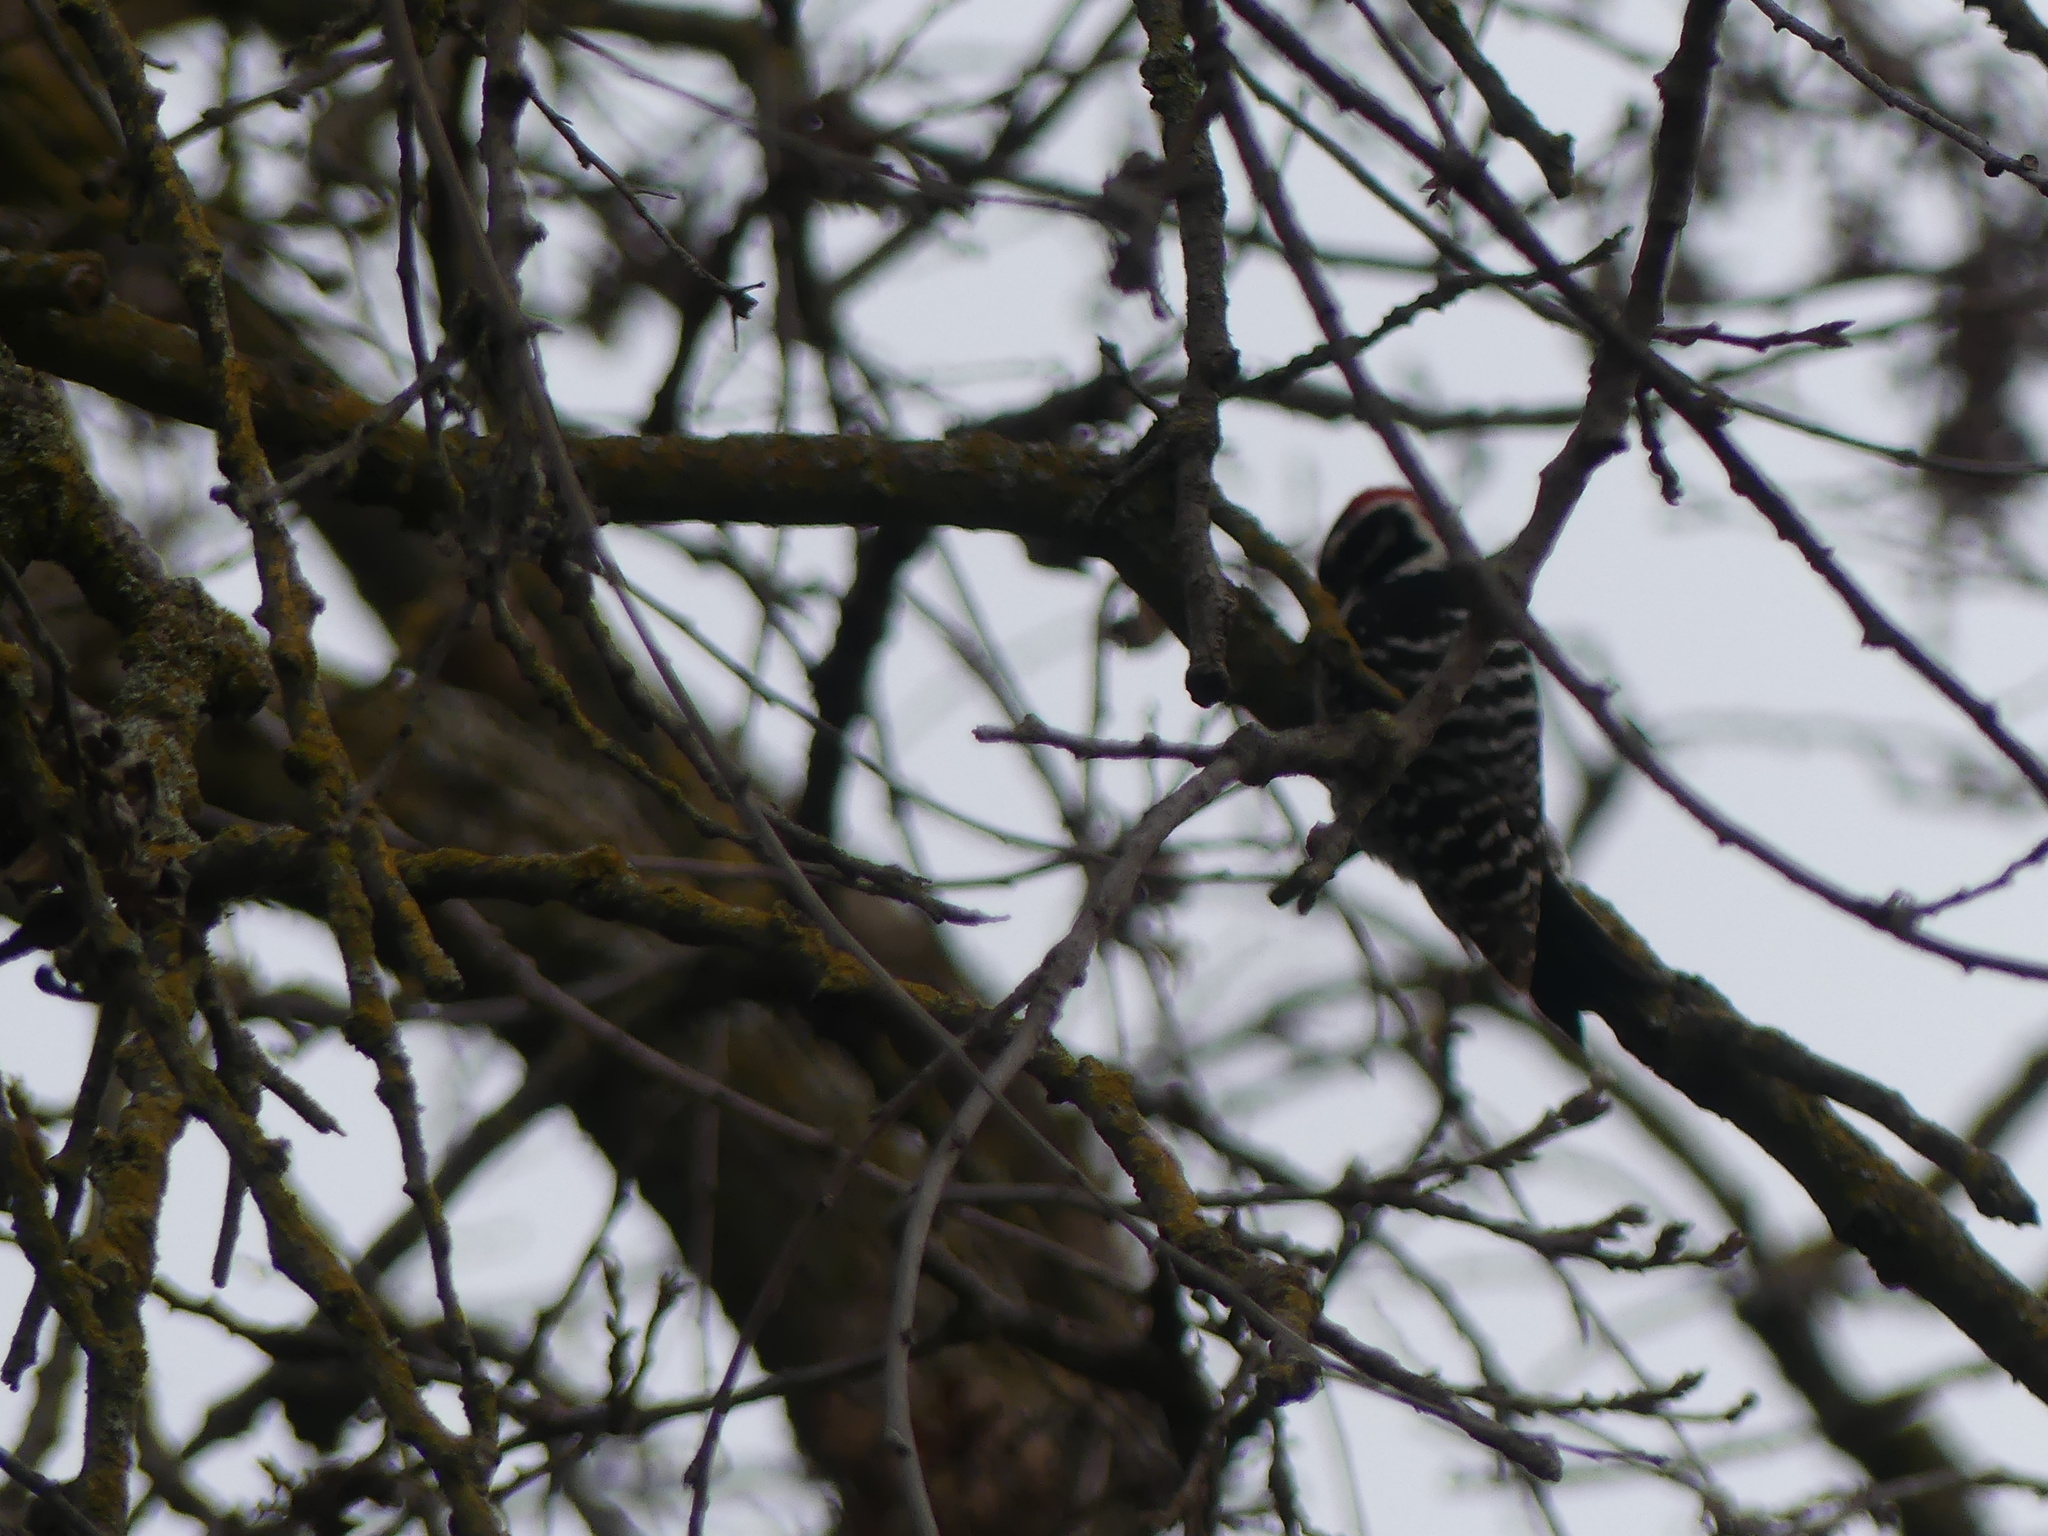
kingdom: Animalia
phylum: Chordata
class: Aves
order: Piciformes
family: Picidae
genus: Dryobates
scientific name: Dryobates nuttallii
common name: Nuttall's woodpecker
